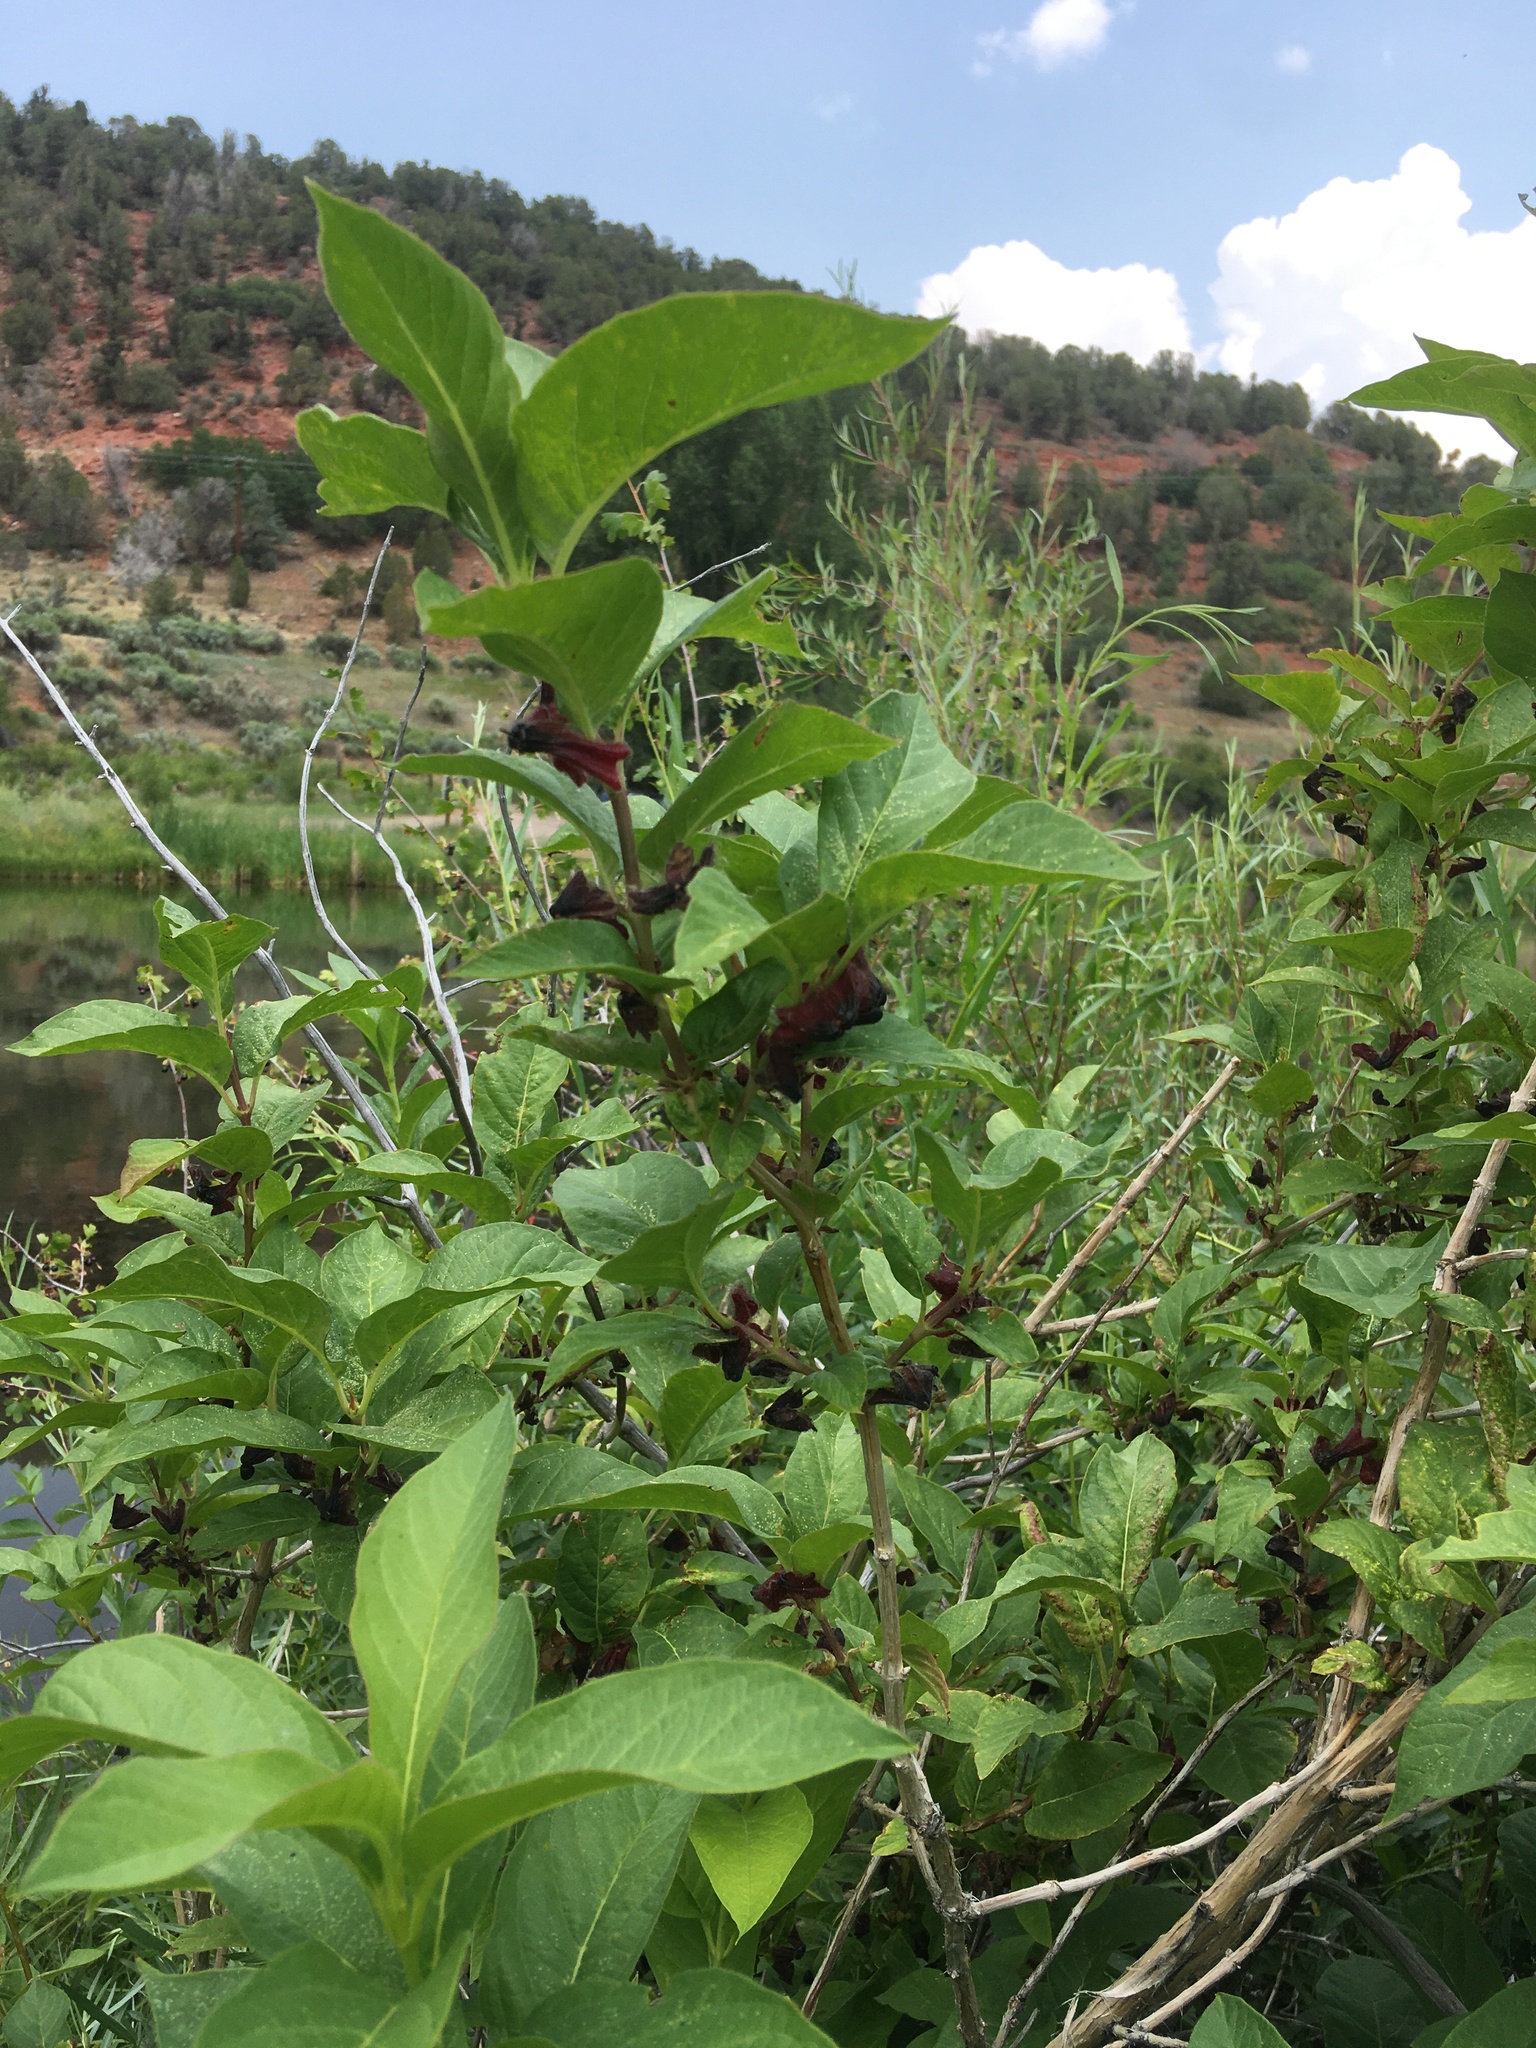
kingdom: Plantae
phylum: Tracheophyta
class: Magnoliopsida
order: Dipsacales
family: Caprifoliaceae
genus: Lonicera
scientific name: Lonicera involucrata
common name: Californian honeysuckle
